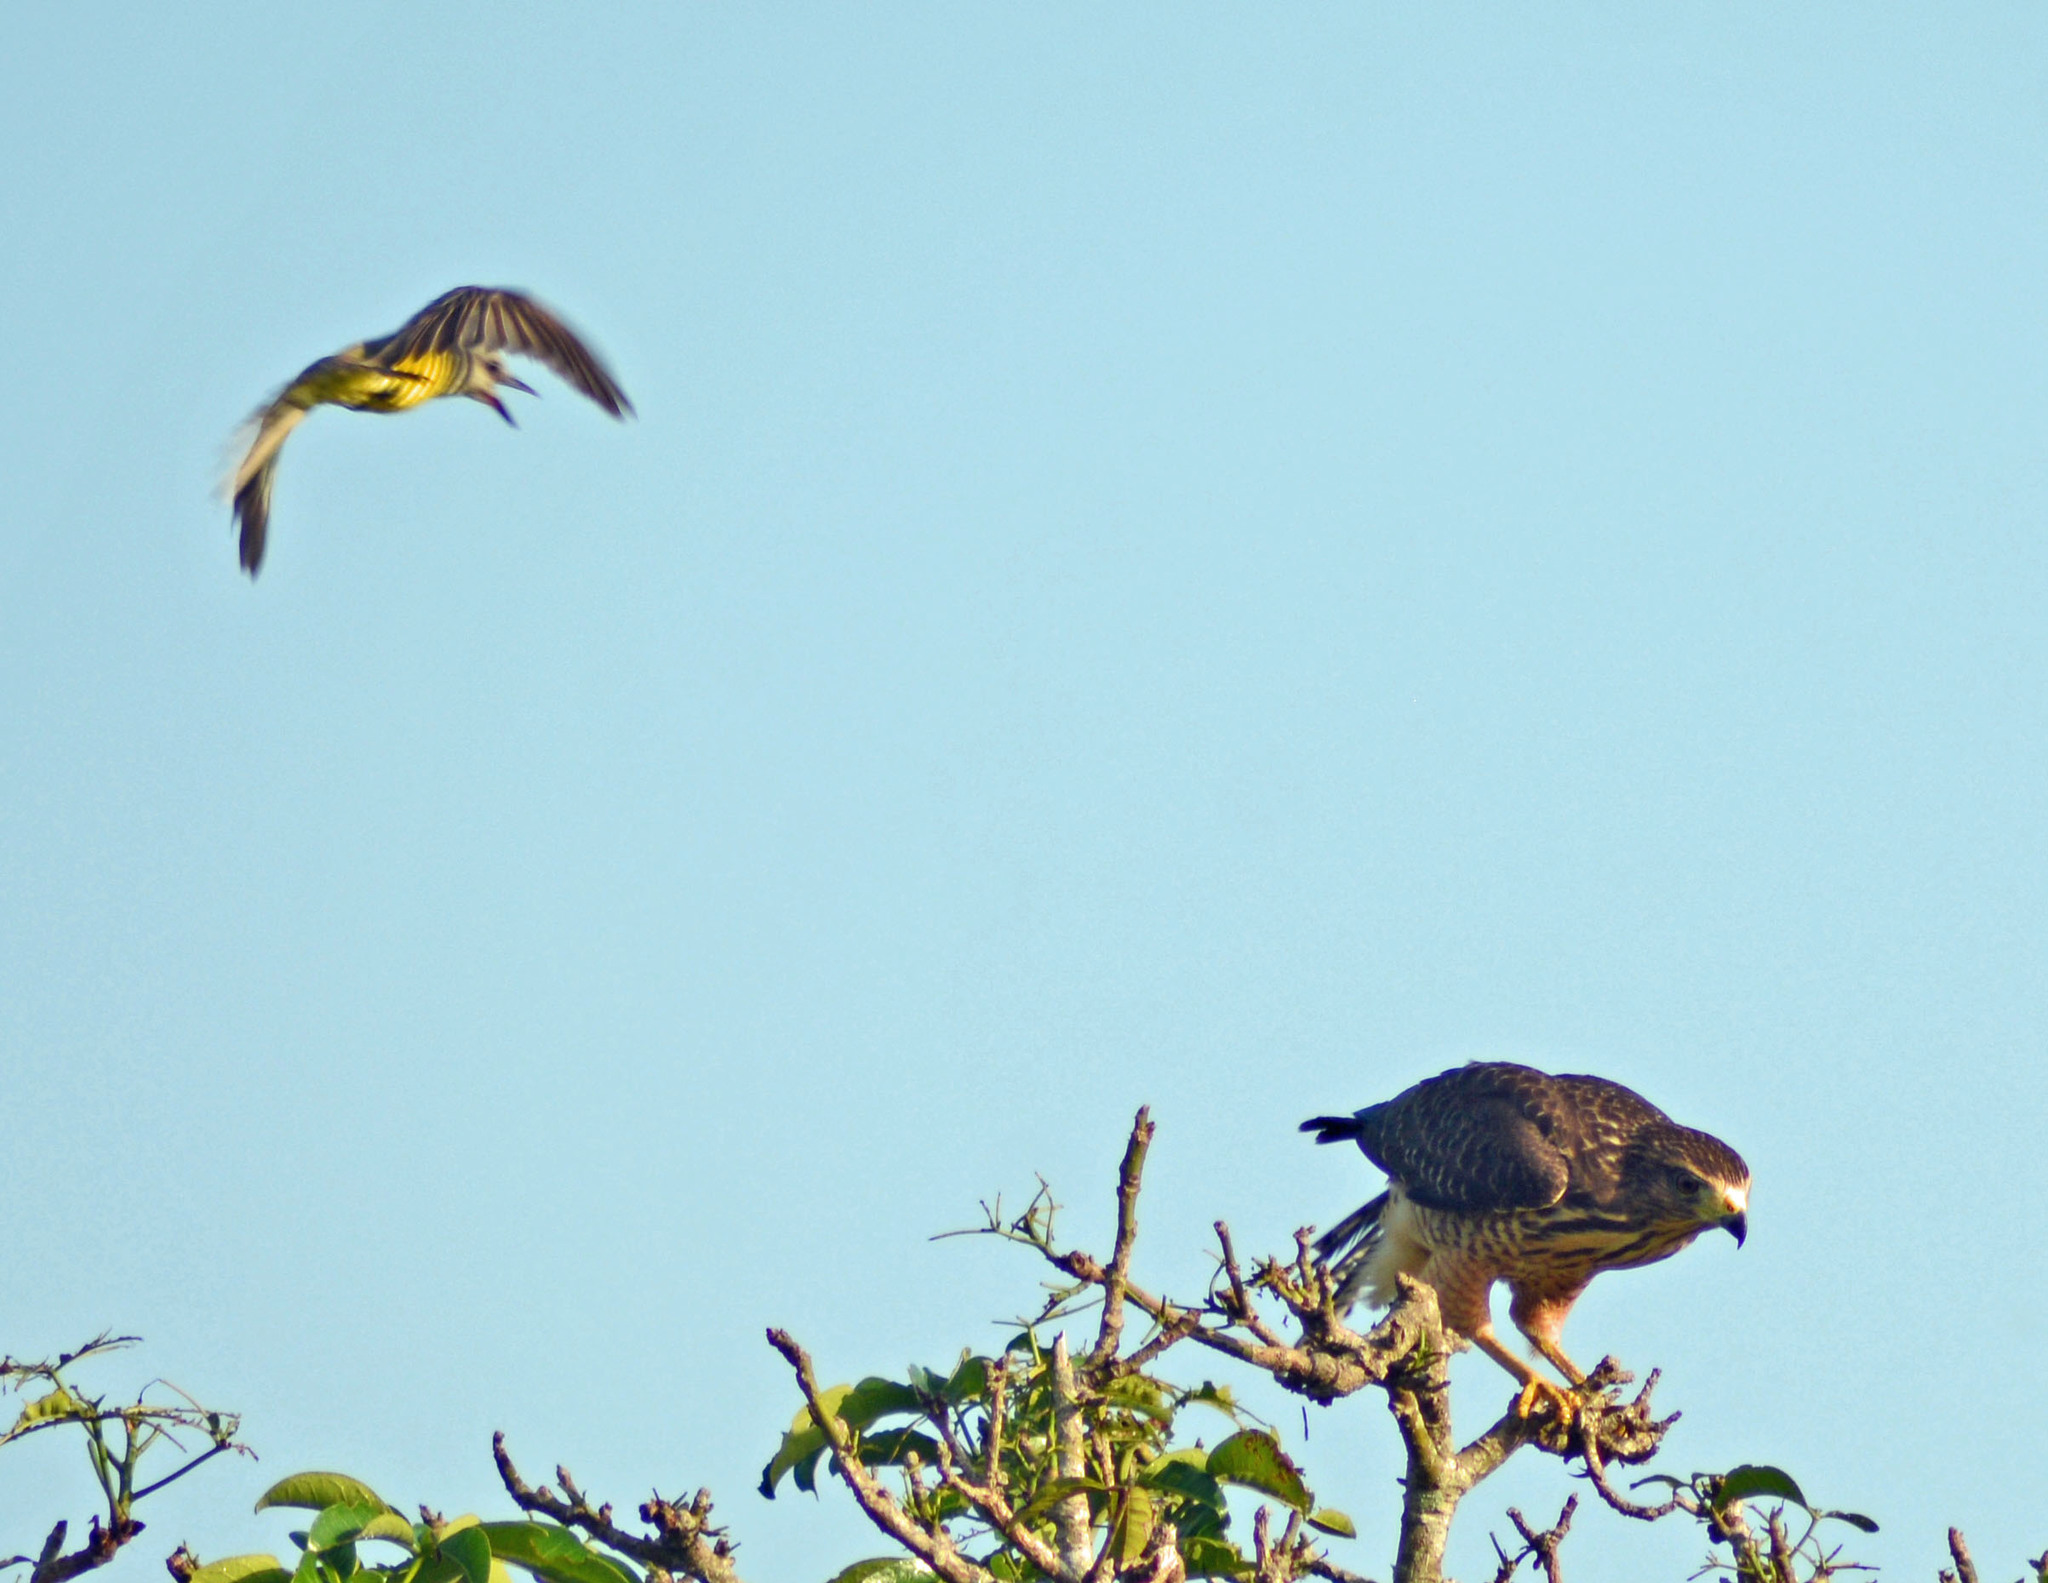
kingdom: Animalia
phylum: Chordata
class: Aves
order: Accipitriformes
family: Accipitridae
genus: Rupornis
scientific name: Rupornis magnirostris
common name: Roadside hawk
